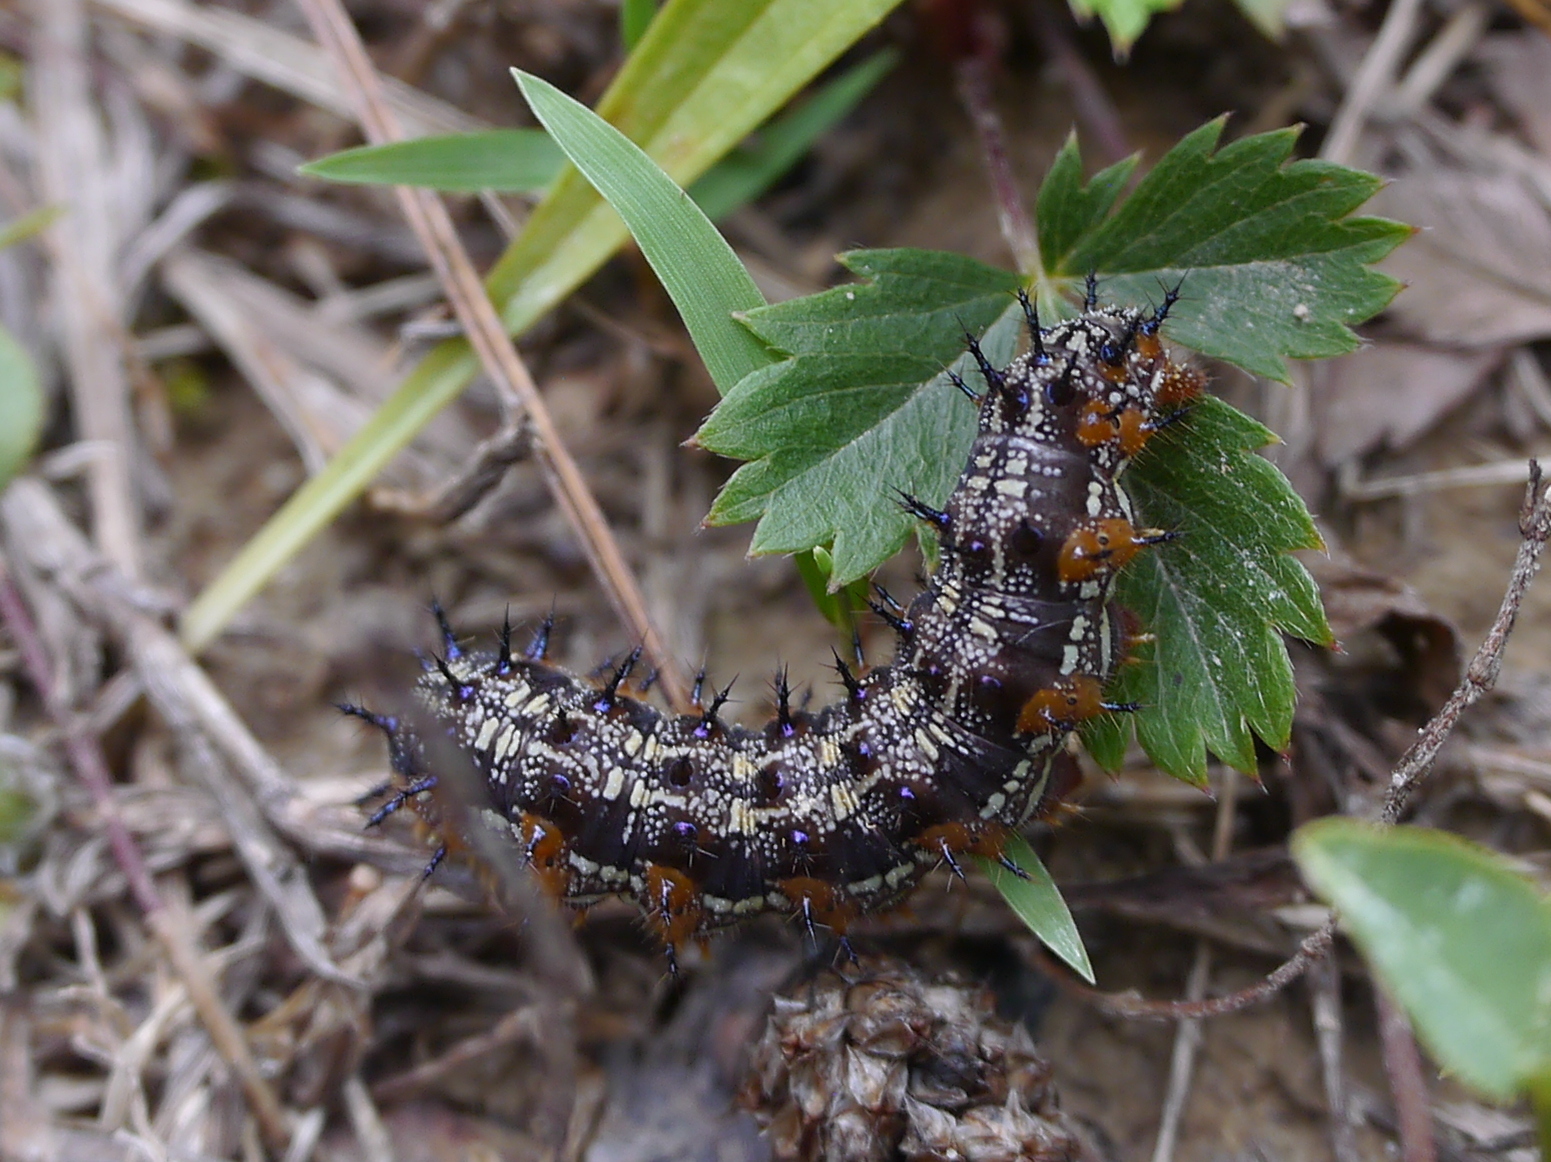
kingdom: Animalia
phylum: Arthropoda
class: Insecta
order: Lepidoptera
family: Nymphalidae
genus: Junonia
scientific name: Junonia coenia
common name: Common buckeye
